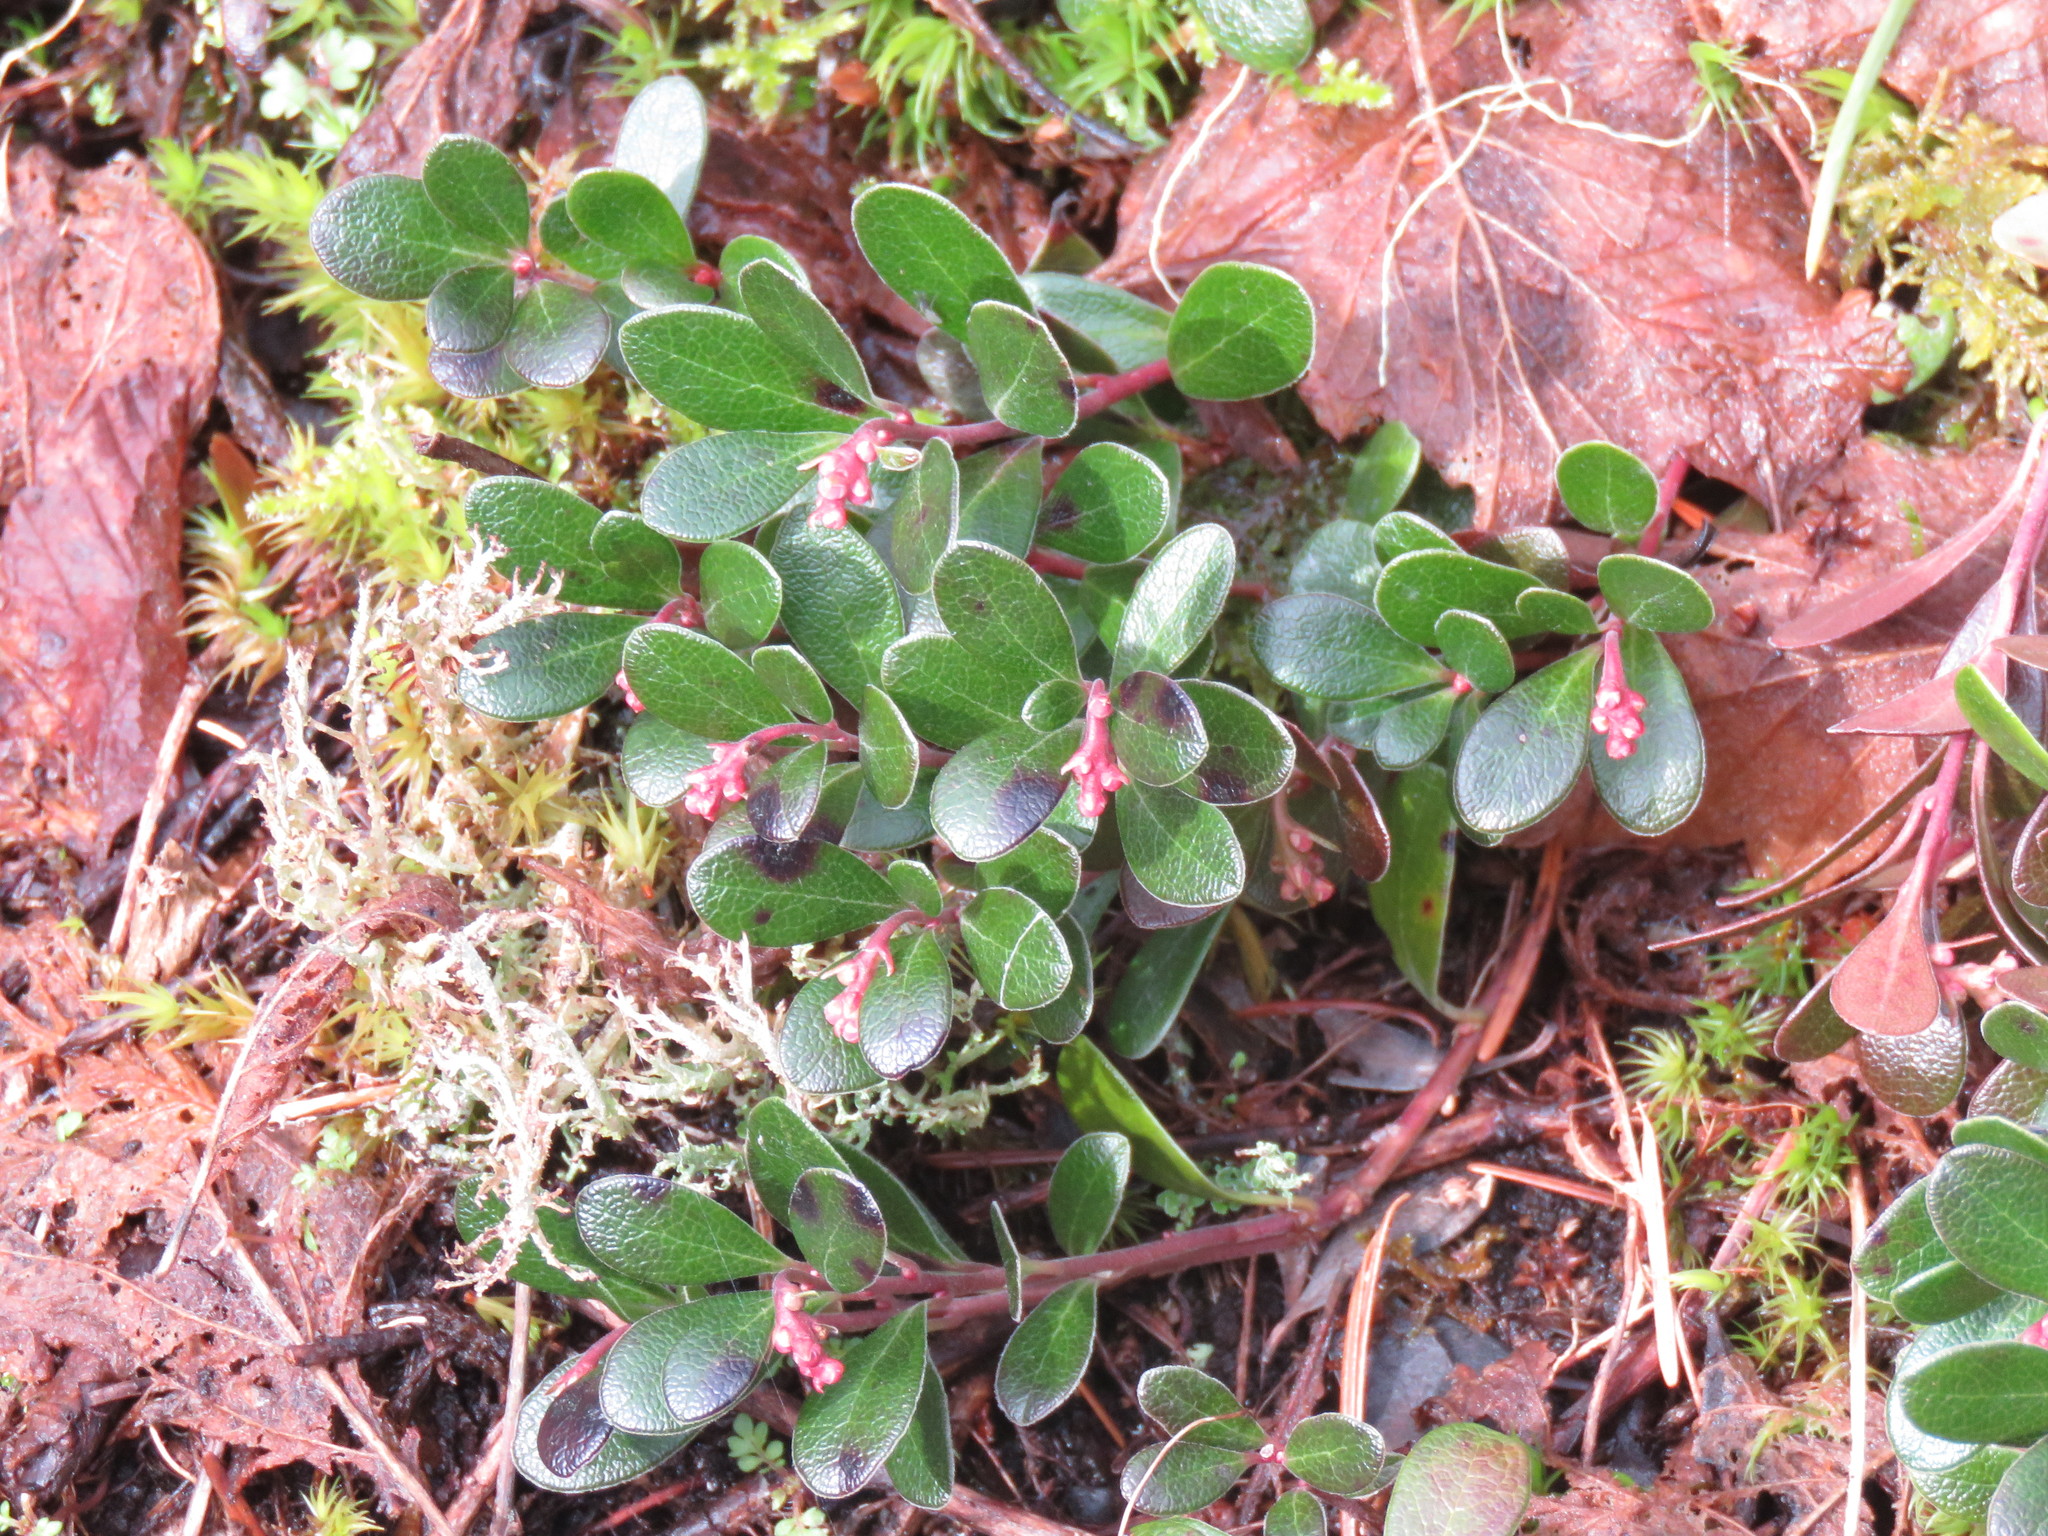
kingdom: Plantae
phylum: Tracheophyta
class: Magnoliopsida
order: Ericales
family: Ericaceae
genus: Arctostaphylos
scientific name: Arctostaphylos uva-ursi
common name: Bearberry
